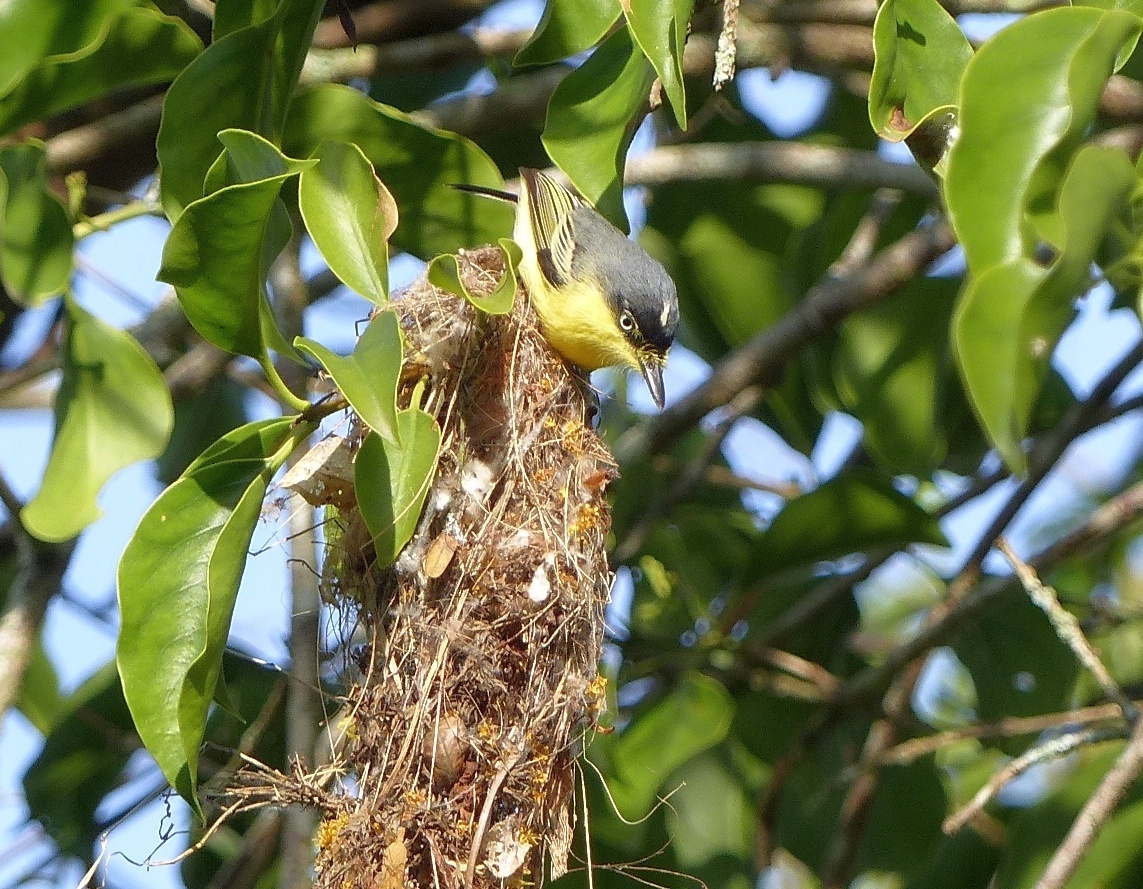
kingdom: Animalia
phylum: Chordata
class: Aves
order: Passeriformes
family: Tyrannidae
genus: Todirostrum
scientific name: Todirostrum cinereum
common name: Common tody-flycatcher
